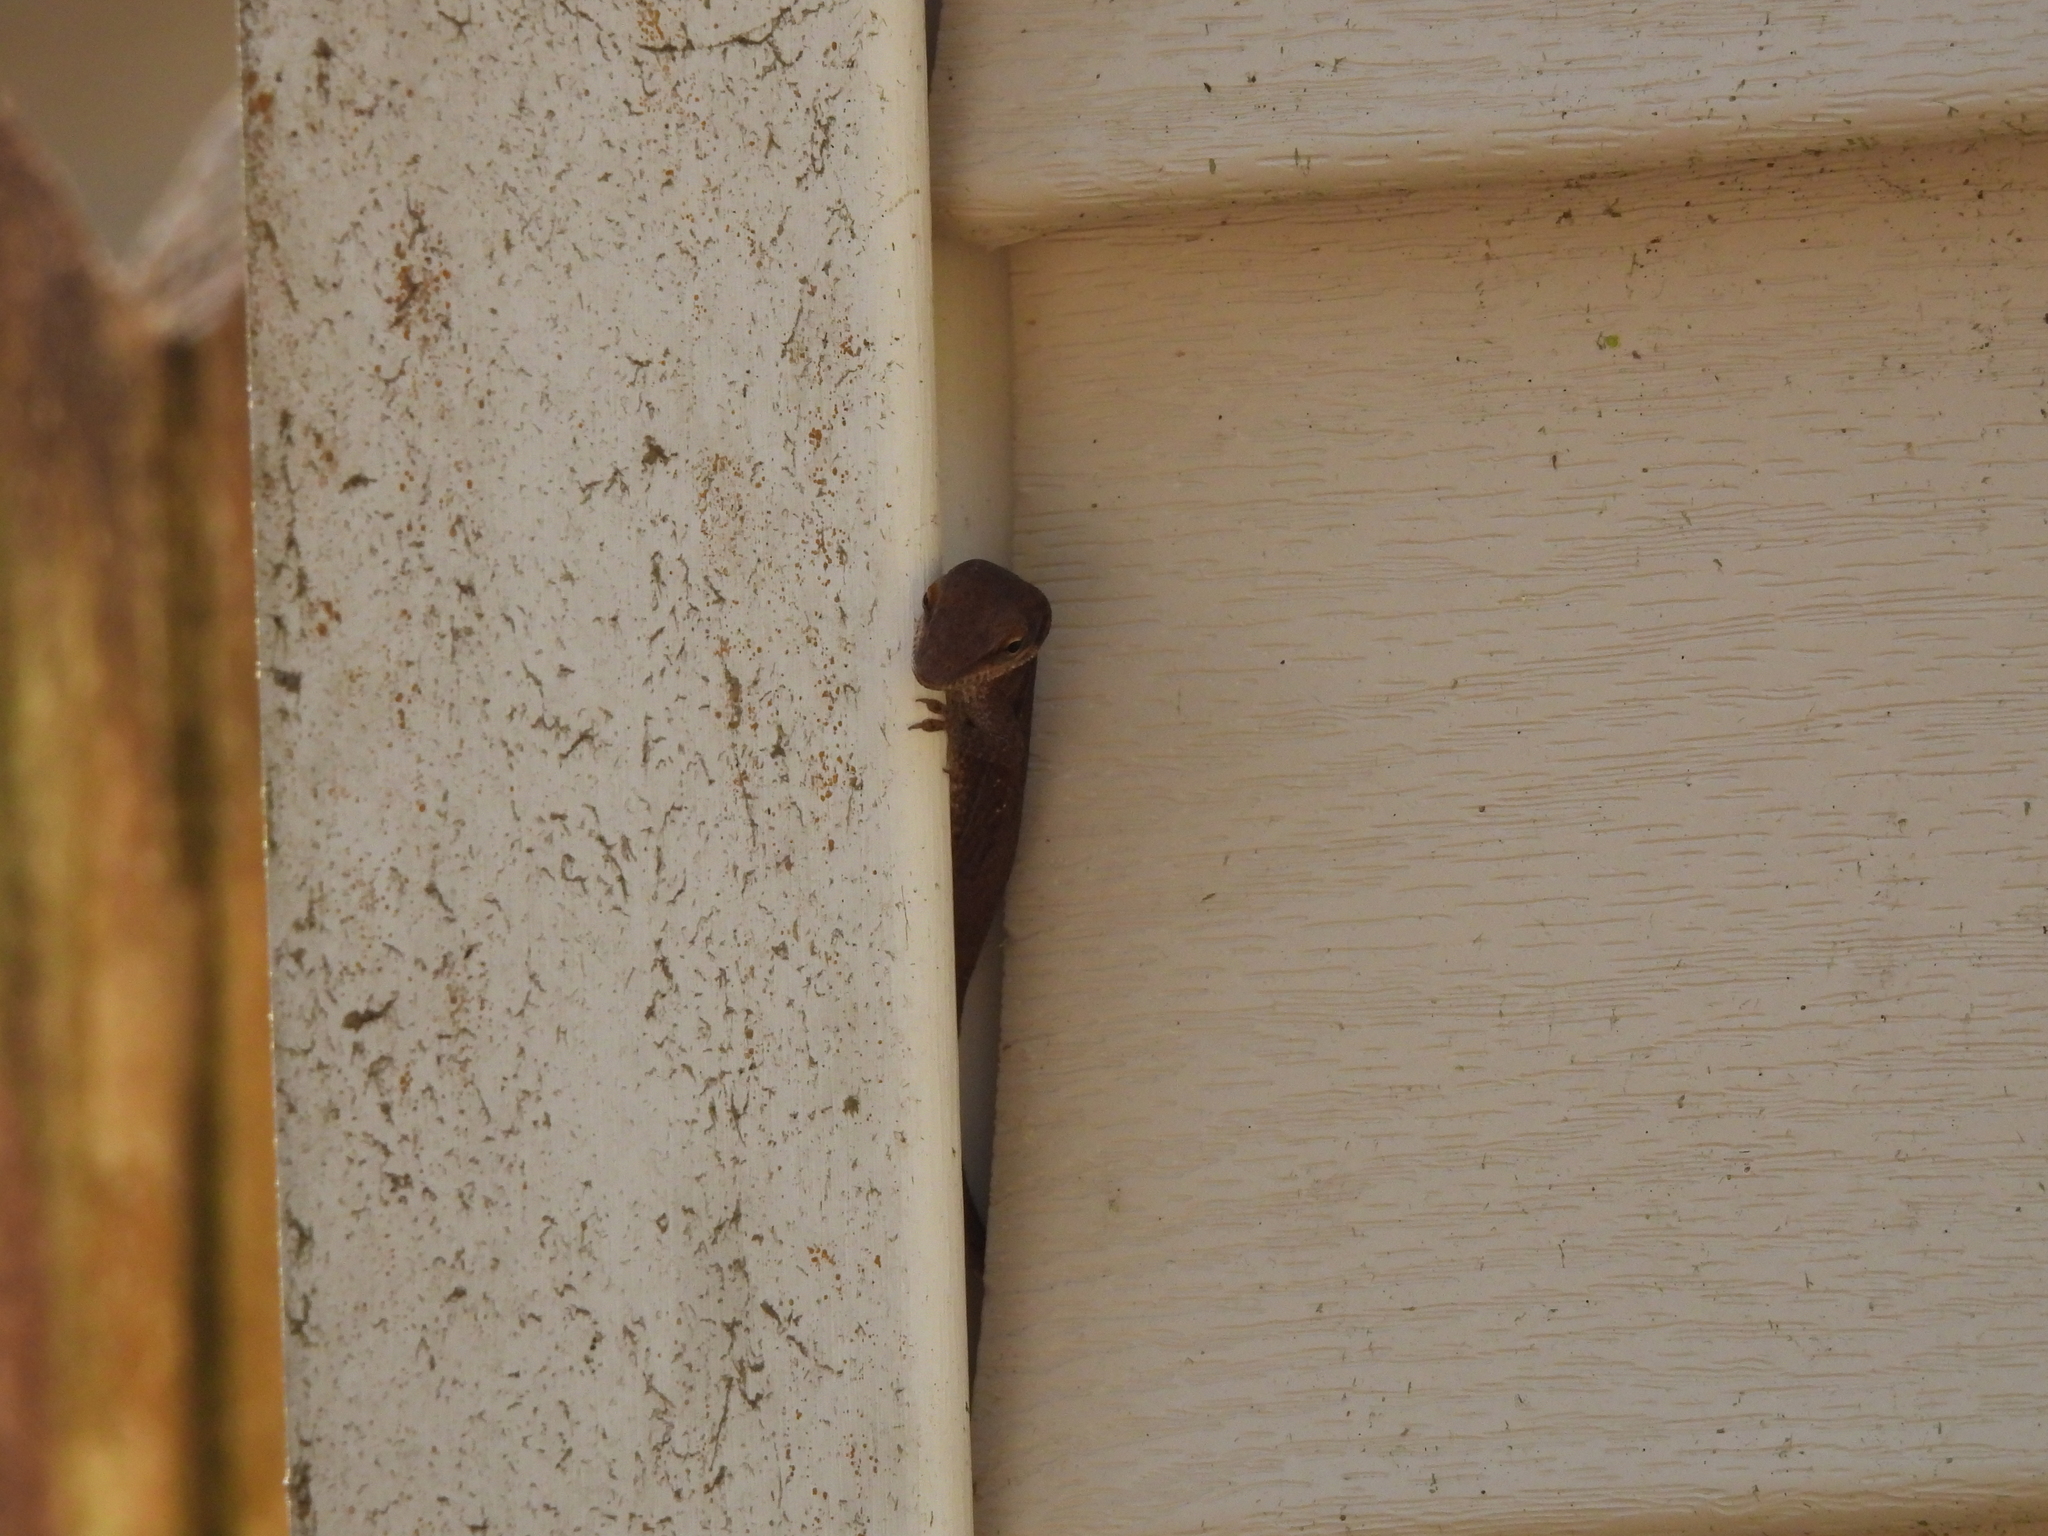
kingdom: Animalia
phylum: Chordata
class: Squamata
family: Dactyloidae
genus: Anolis
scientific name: Anolis carolinensis
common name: Green anole
